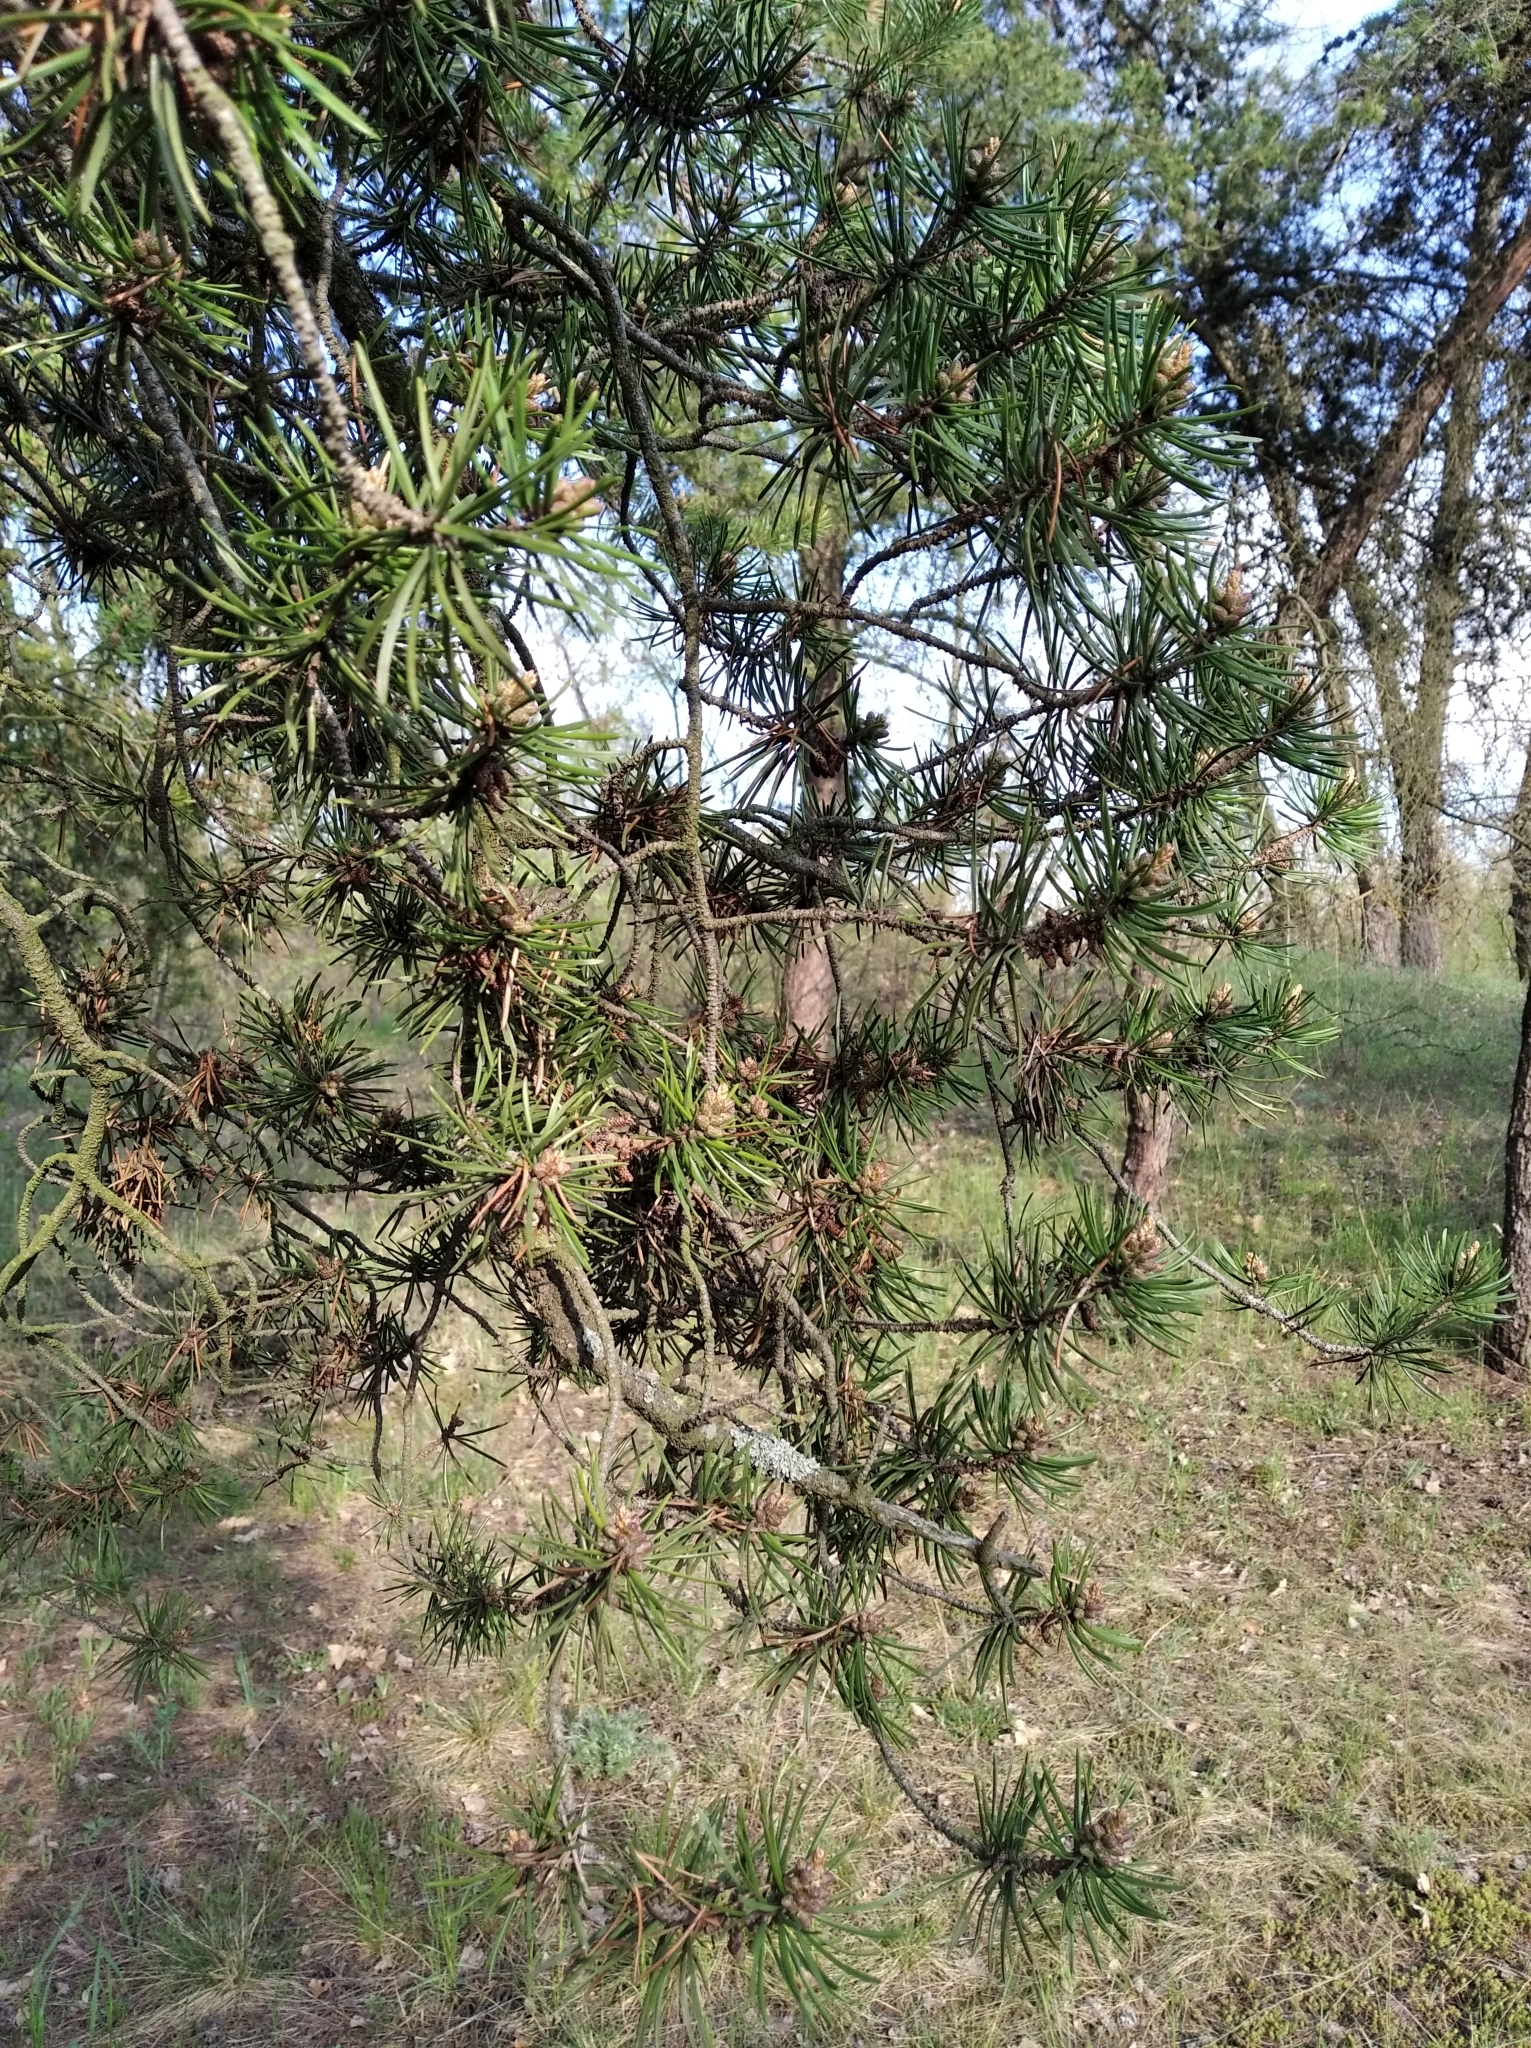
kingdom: Plantae
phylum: Tracheophyta
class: Pinopsida
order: Pinales
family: Pinaceae
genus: Pinus
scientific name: Pinus banksiana
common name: Jack pine
